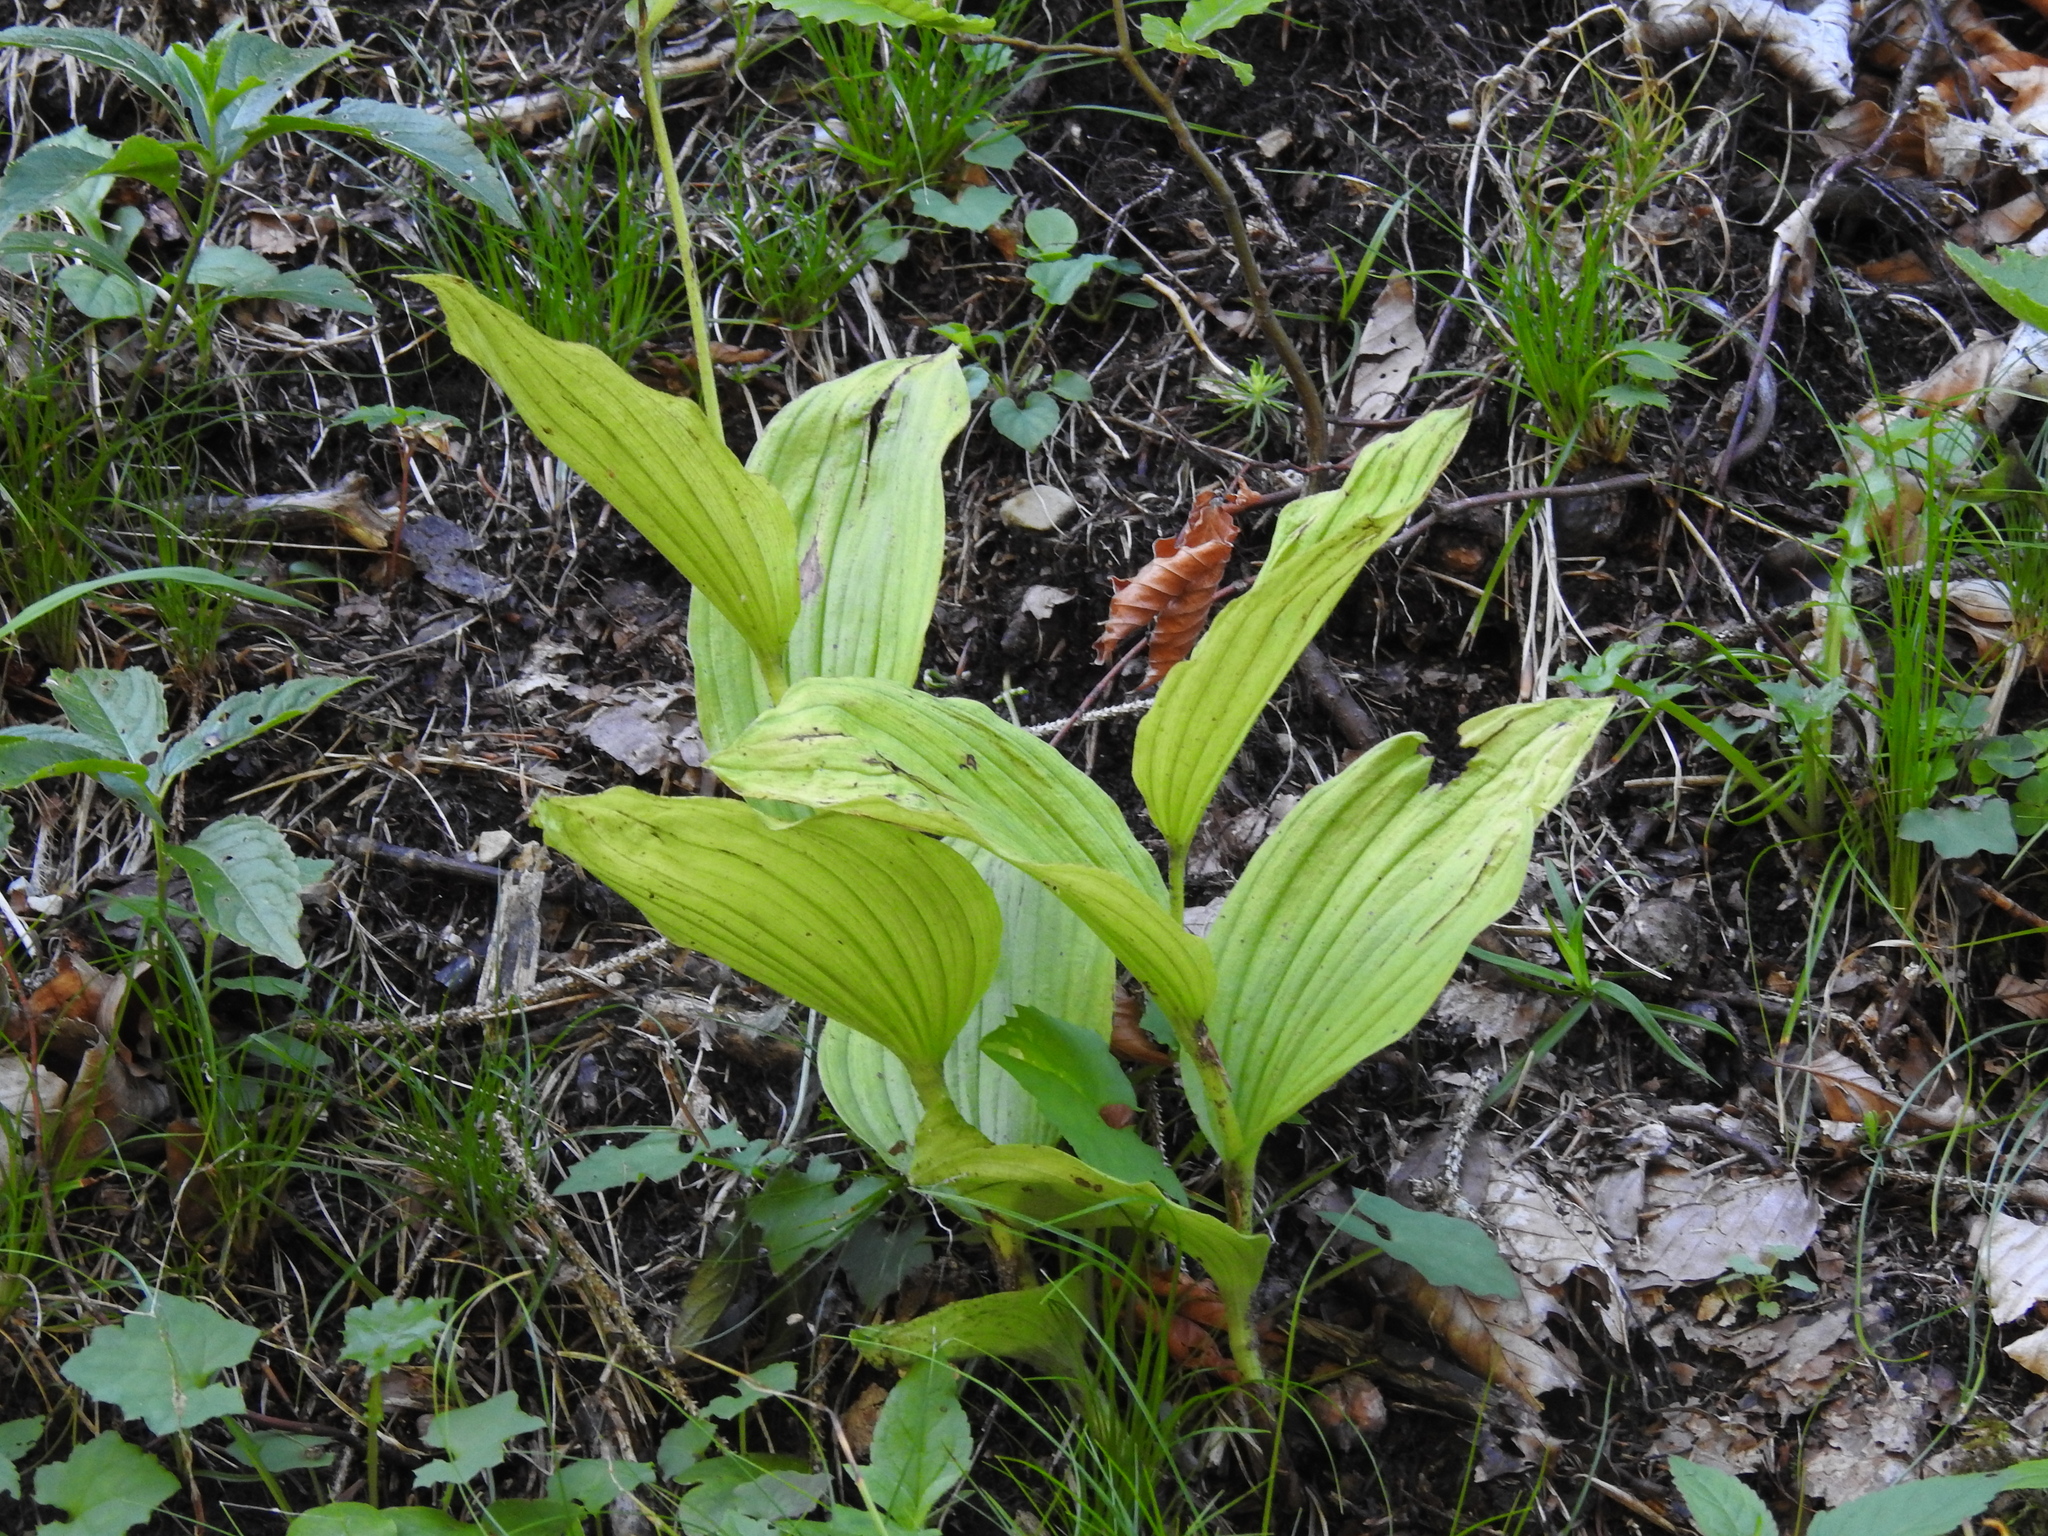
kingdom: Plantae
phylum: Tracheophyta
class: Liliopsida
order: Asparagales
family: Orchidaceae
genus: Cypripedium
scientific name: Cypripedium calceolus
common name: Lady's-slipper
